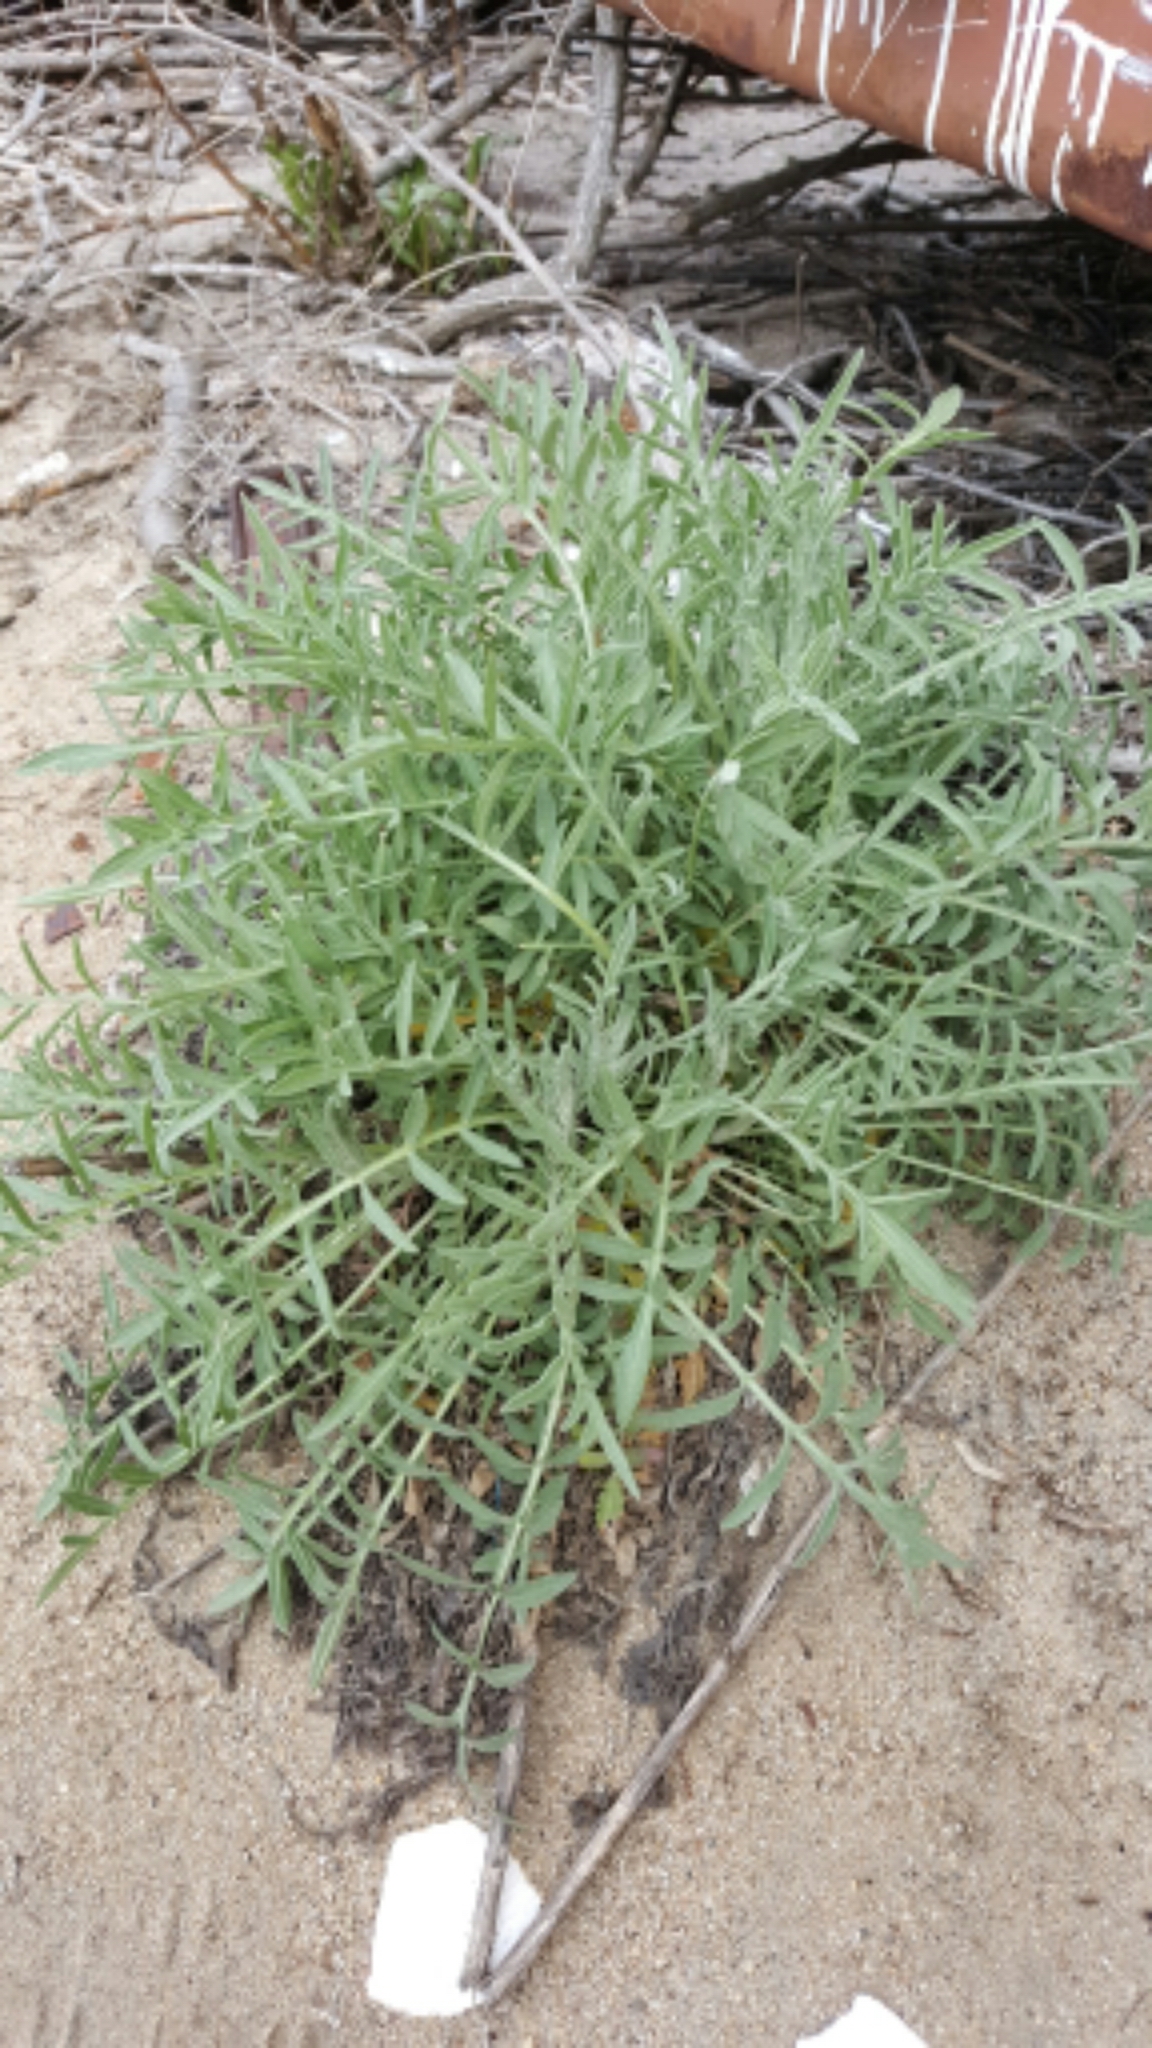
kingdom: Plantae
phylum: Tracheophyta
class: Magnoliopsida
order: Asterales
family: Asteraceae
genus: Centaurea
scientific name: Centaurea stoebe
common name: Spotted knapweed
